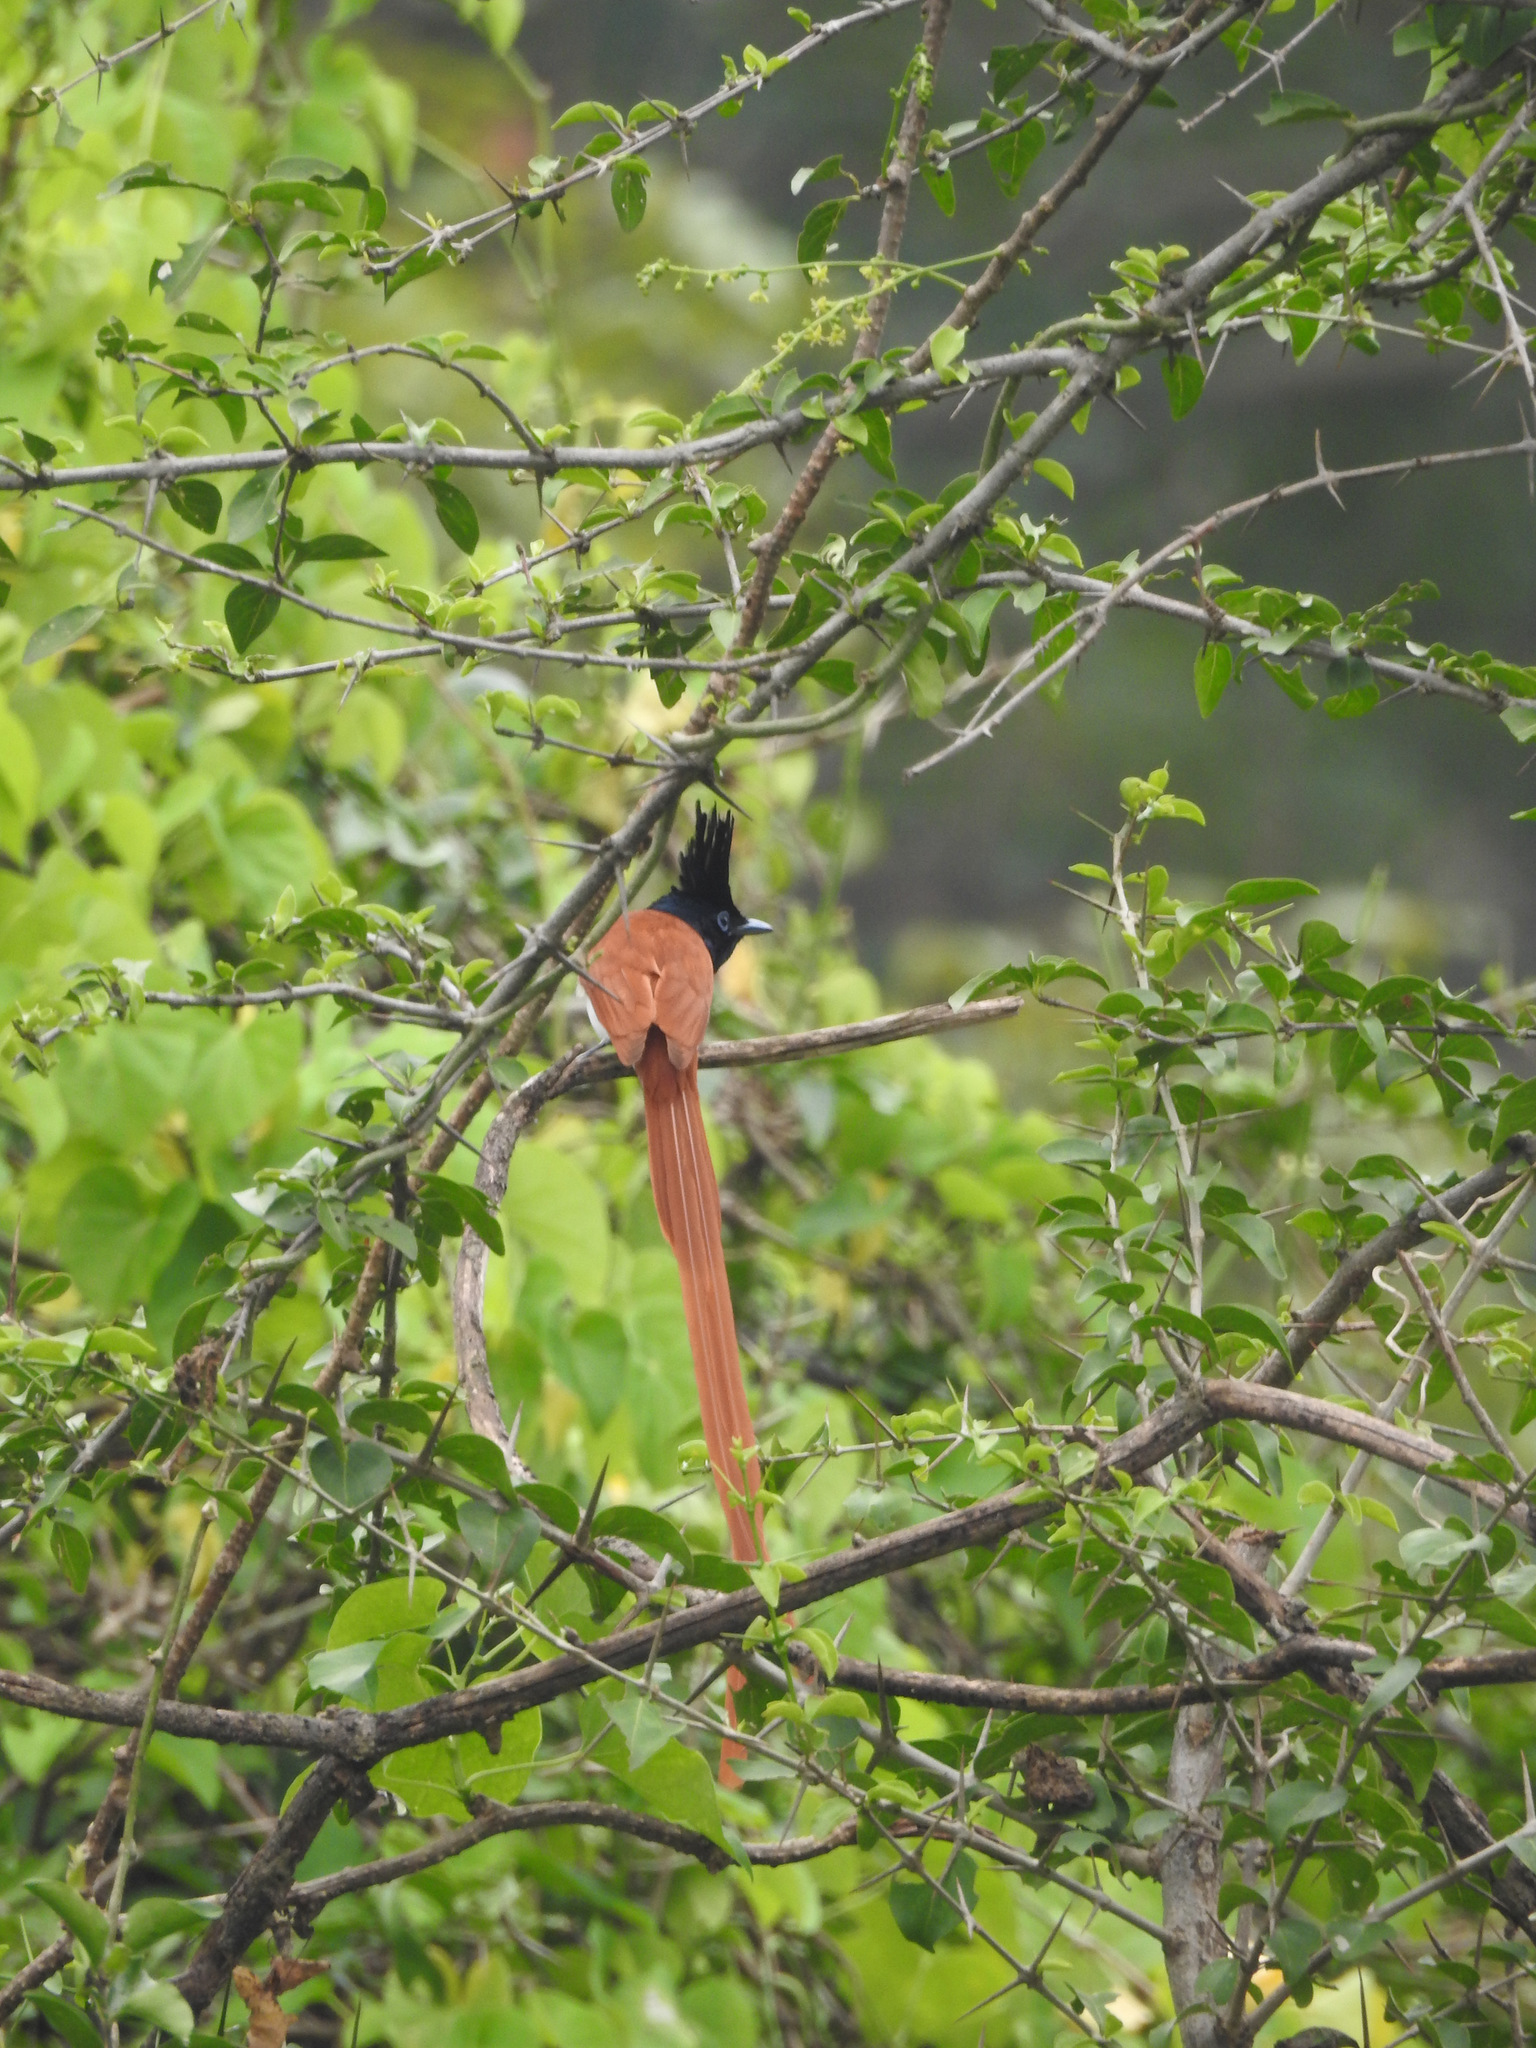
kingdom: Animalia
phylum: Chordata
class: Aves
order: Passeriformes
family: Monarchidae
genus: Terpsiphone
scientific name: Terpsiphone paradisi
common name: Indian paradise flycatcher
